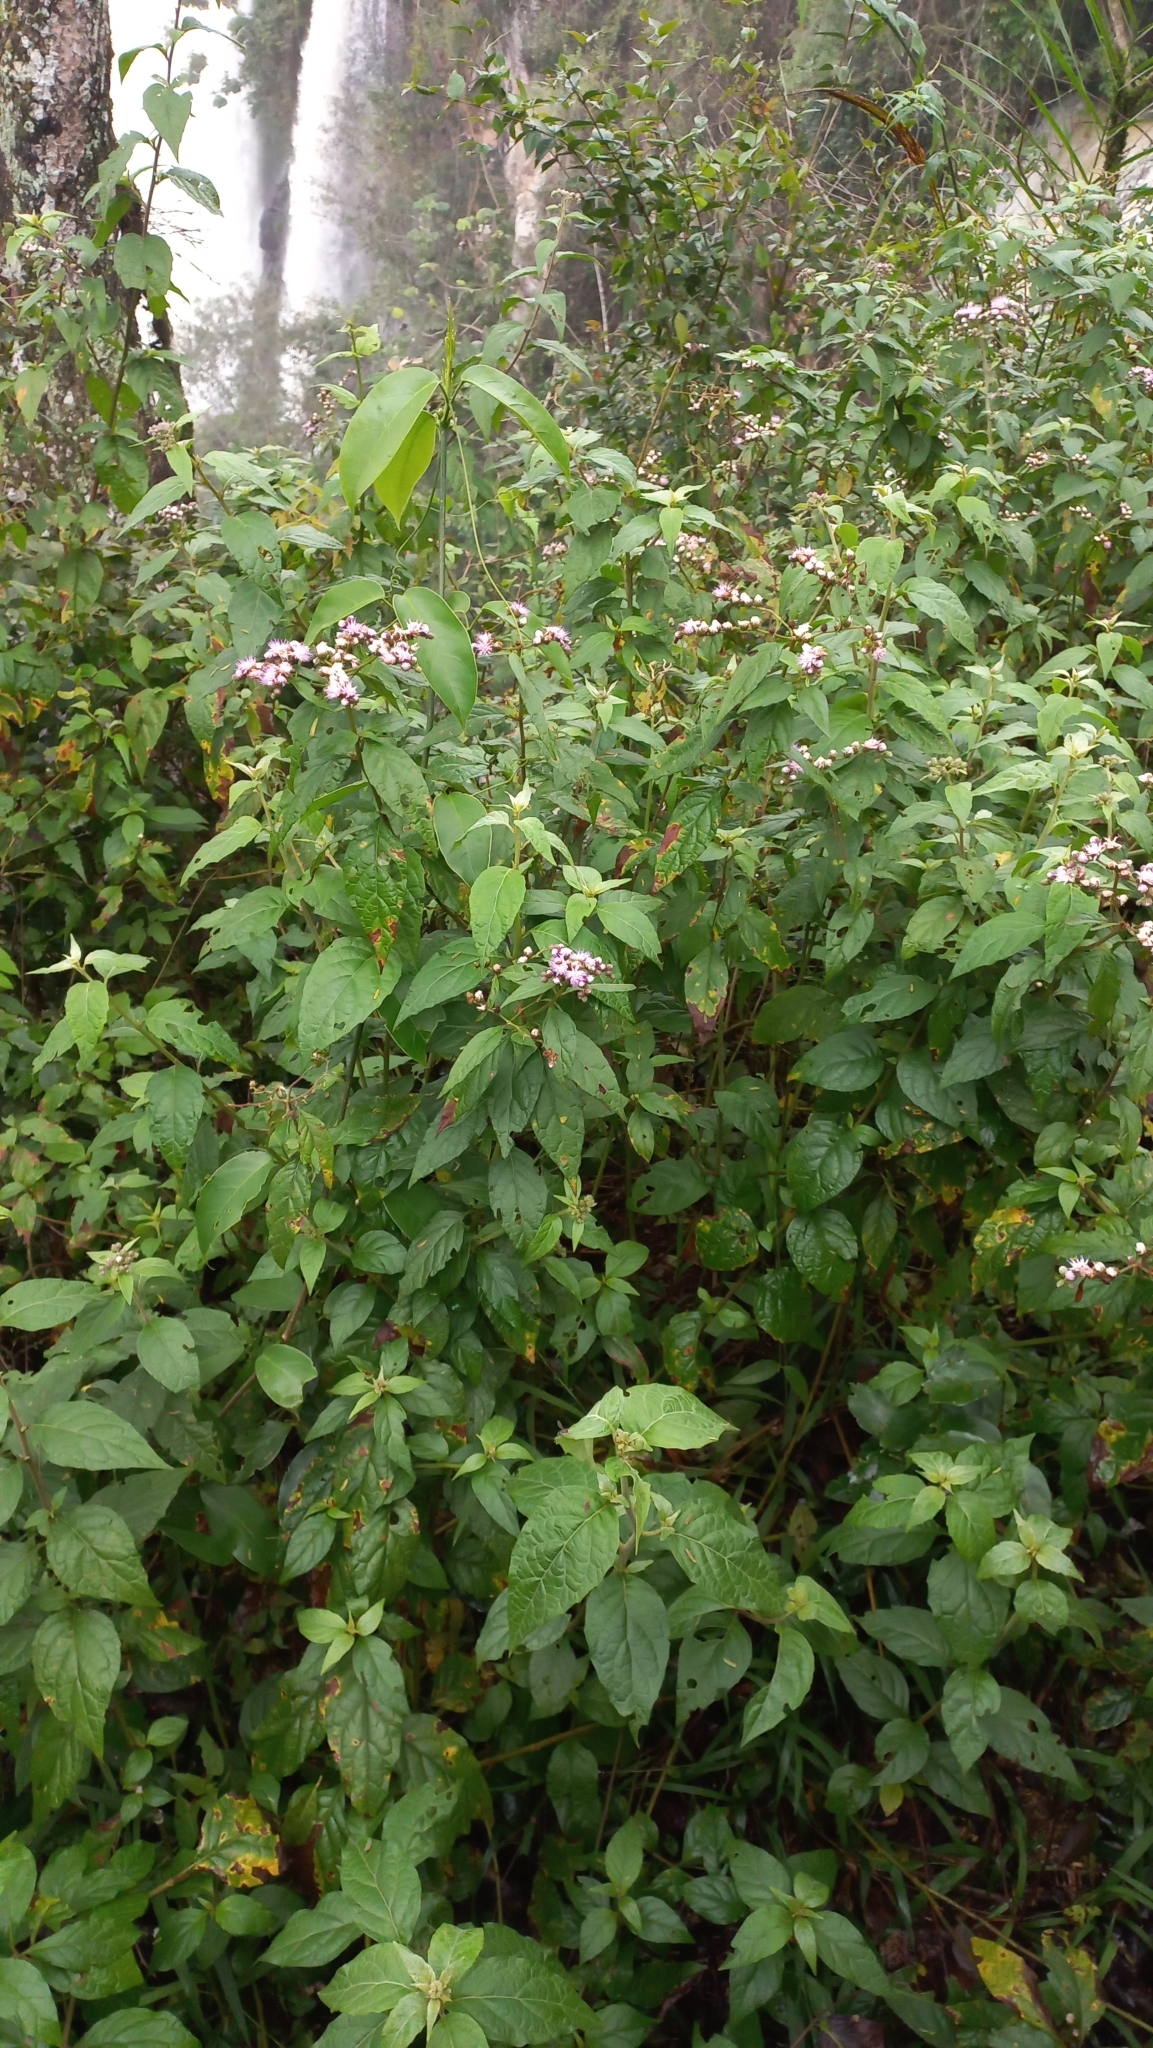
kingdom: Plantae
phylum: Tracheophyta
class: Magnoliopsida
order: Asterales
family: Asteraceae
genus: Cyrtocymura
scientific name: Cyrtocymura scorpioides
